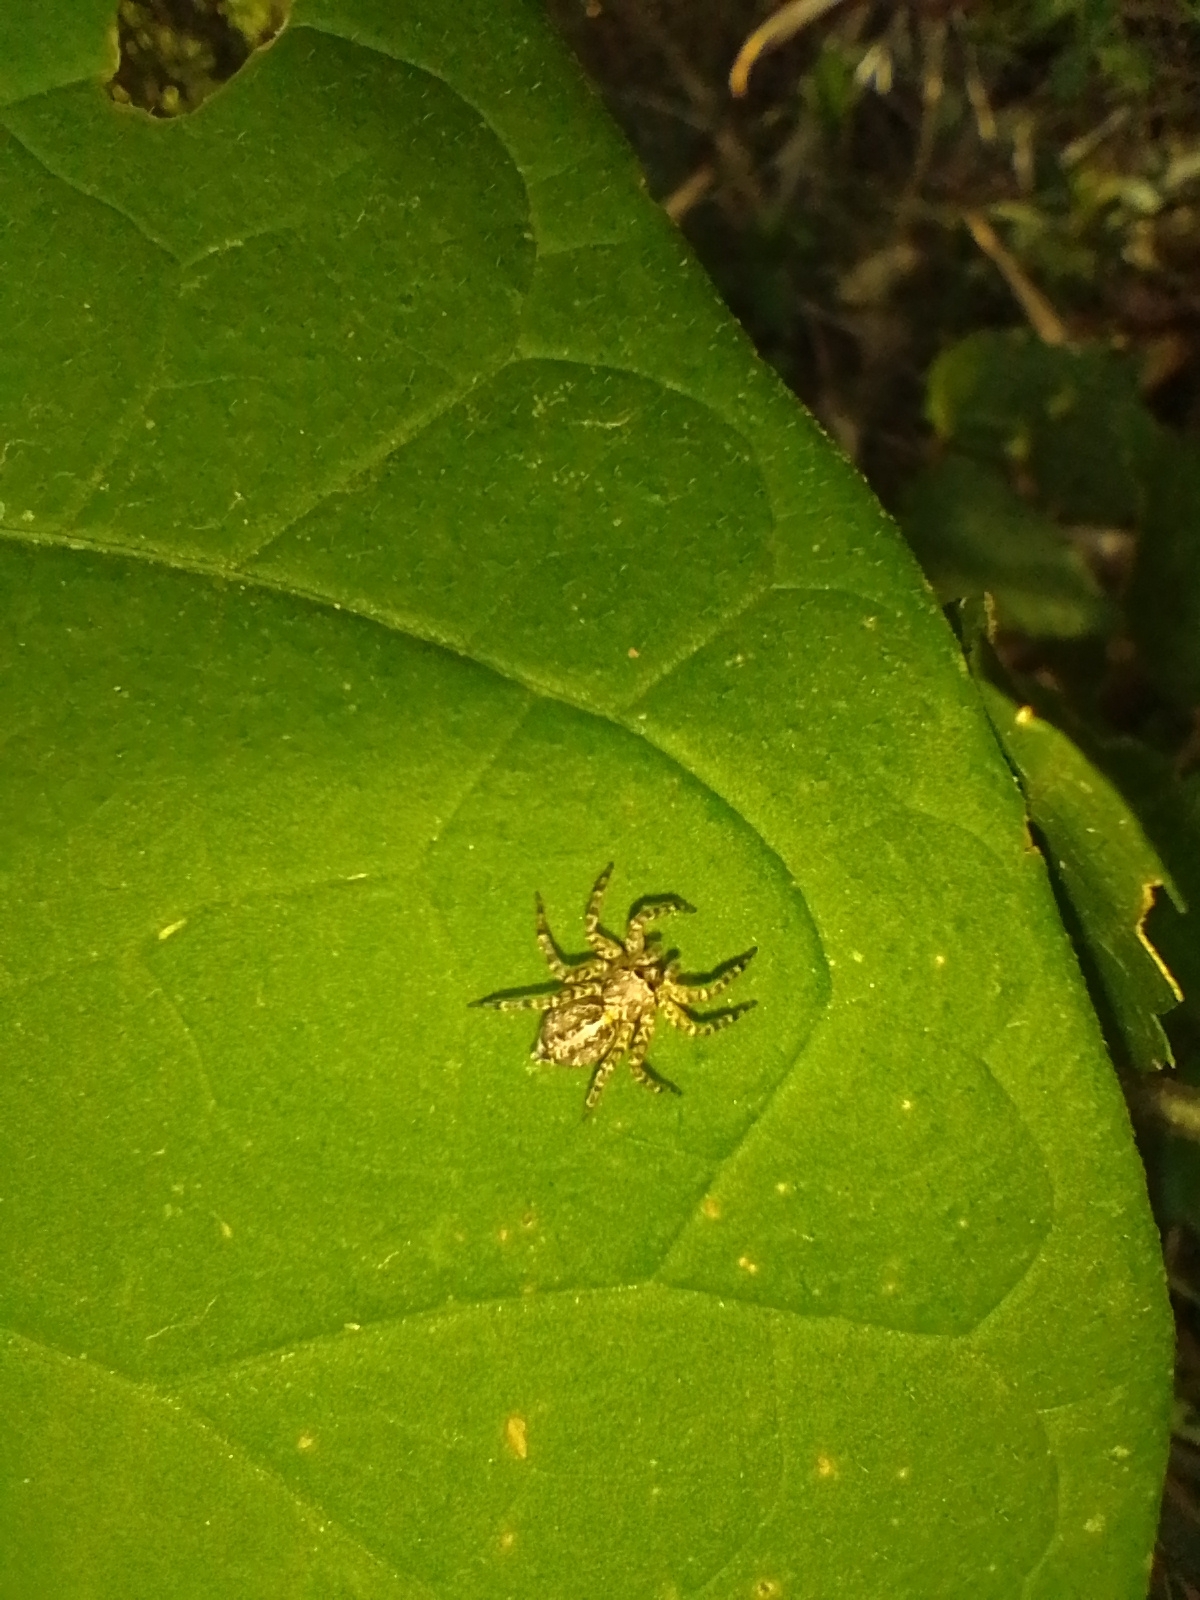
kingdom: Animalia
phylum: Arthropoda
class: Arachnida
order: Araneae
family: Salticidae
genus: Saitis
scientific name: Saitis variegatus
